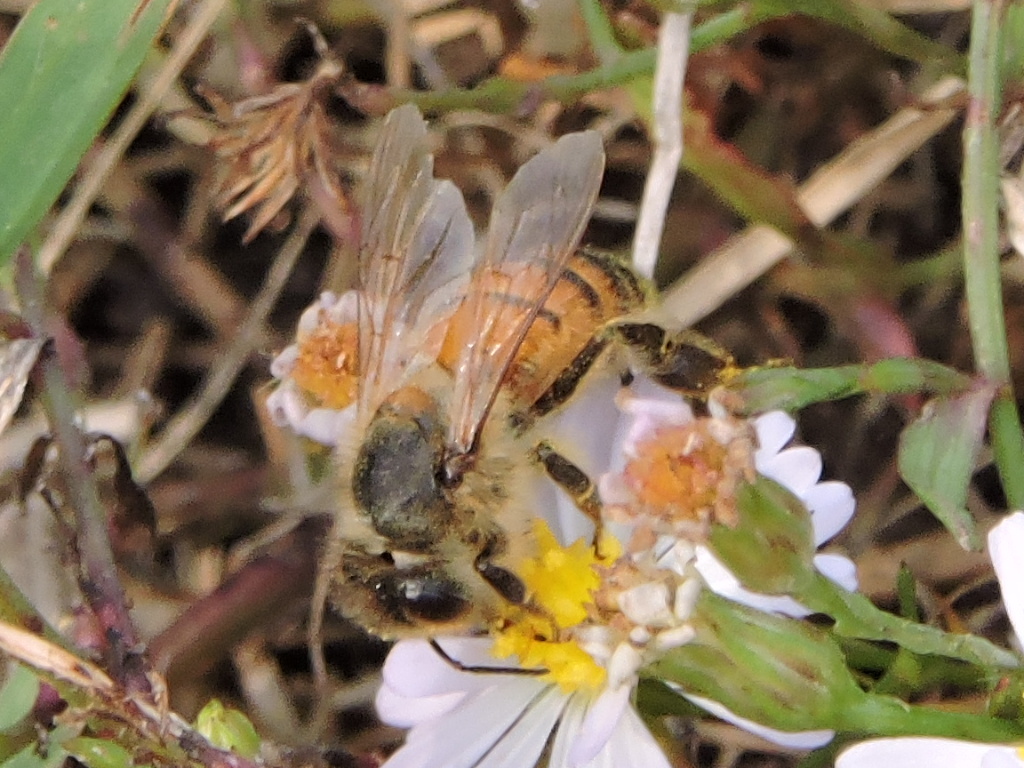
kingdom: Animalia
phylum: Arthropoda
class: Insecta
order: Hymenoptera
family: Apidae
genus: Apis
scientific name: Apis mellifera
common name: Honey bee
